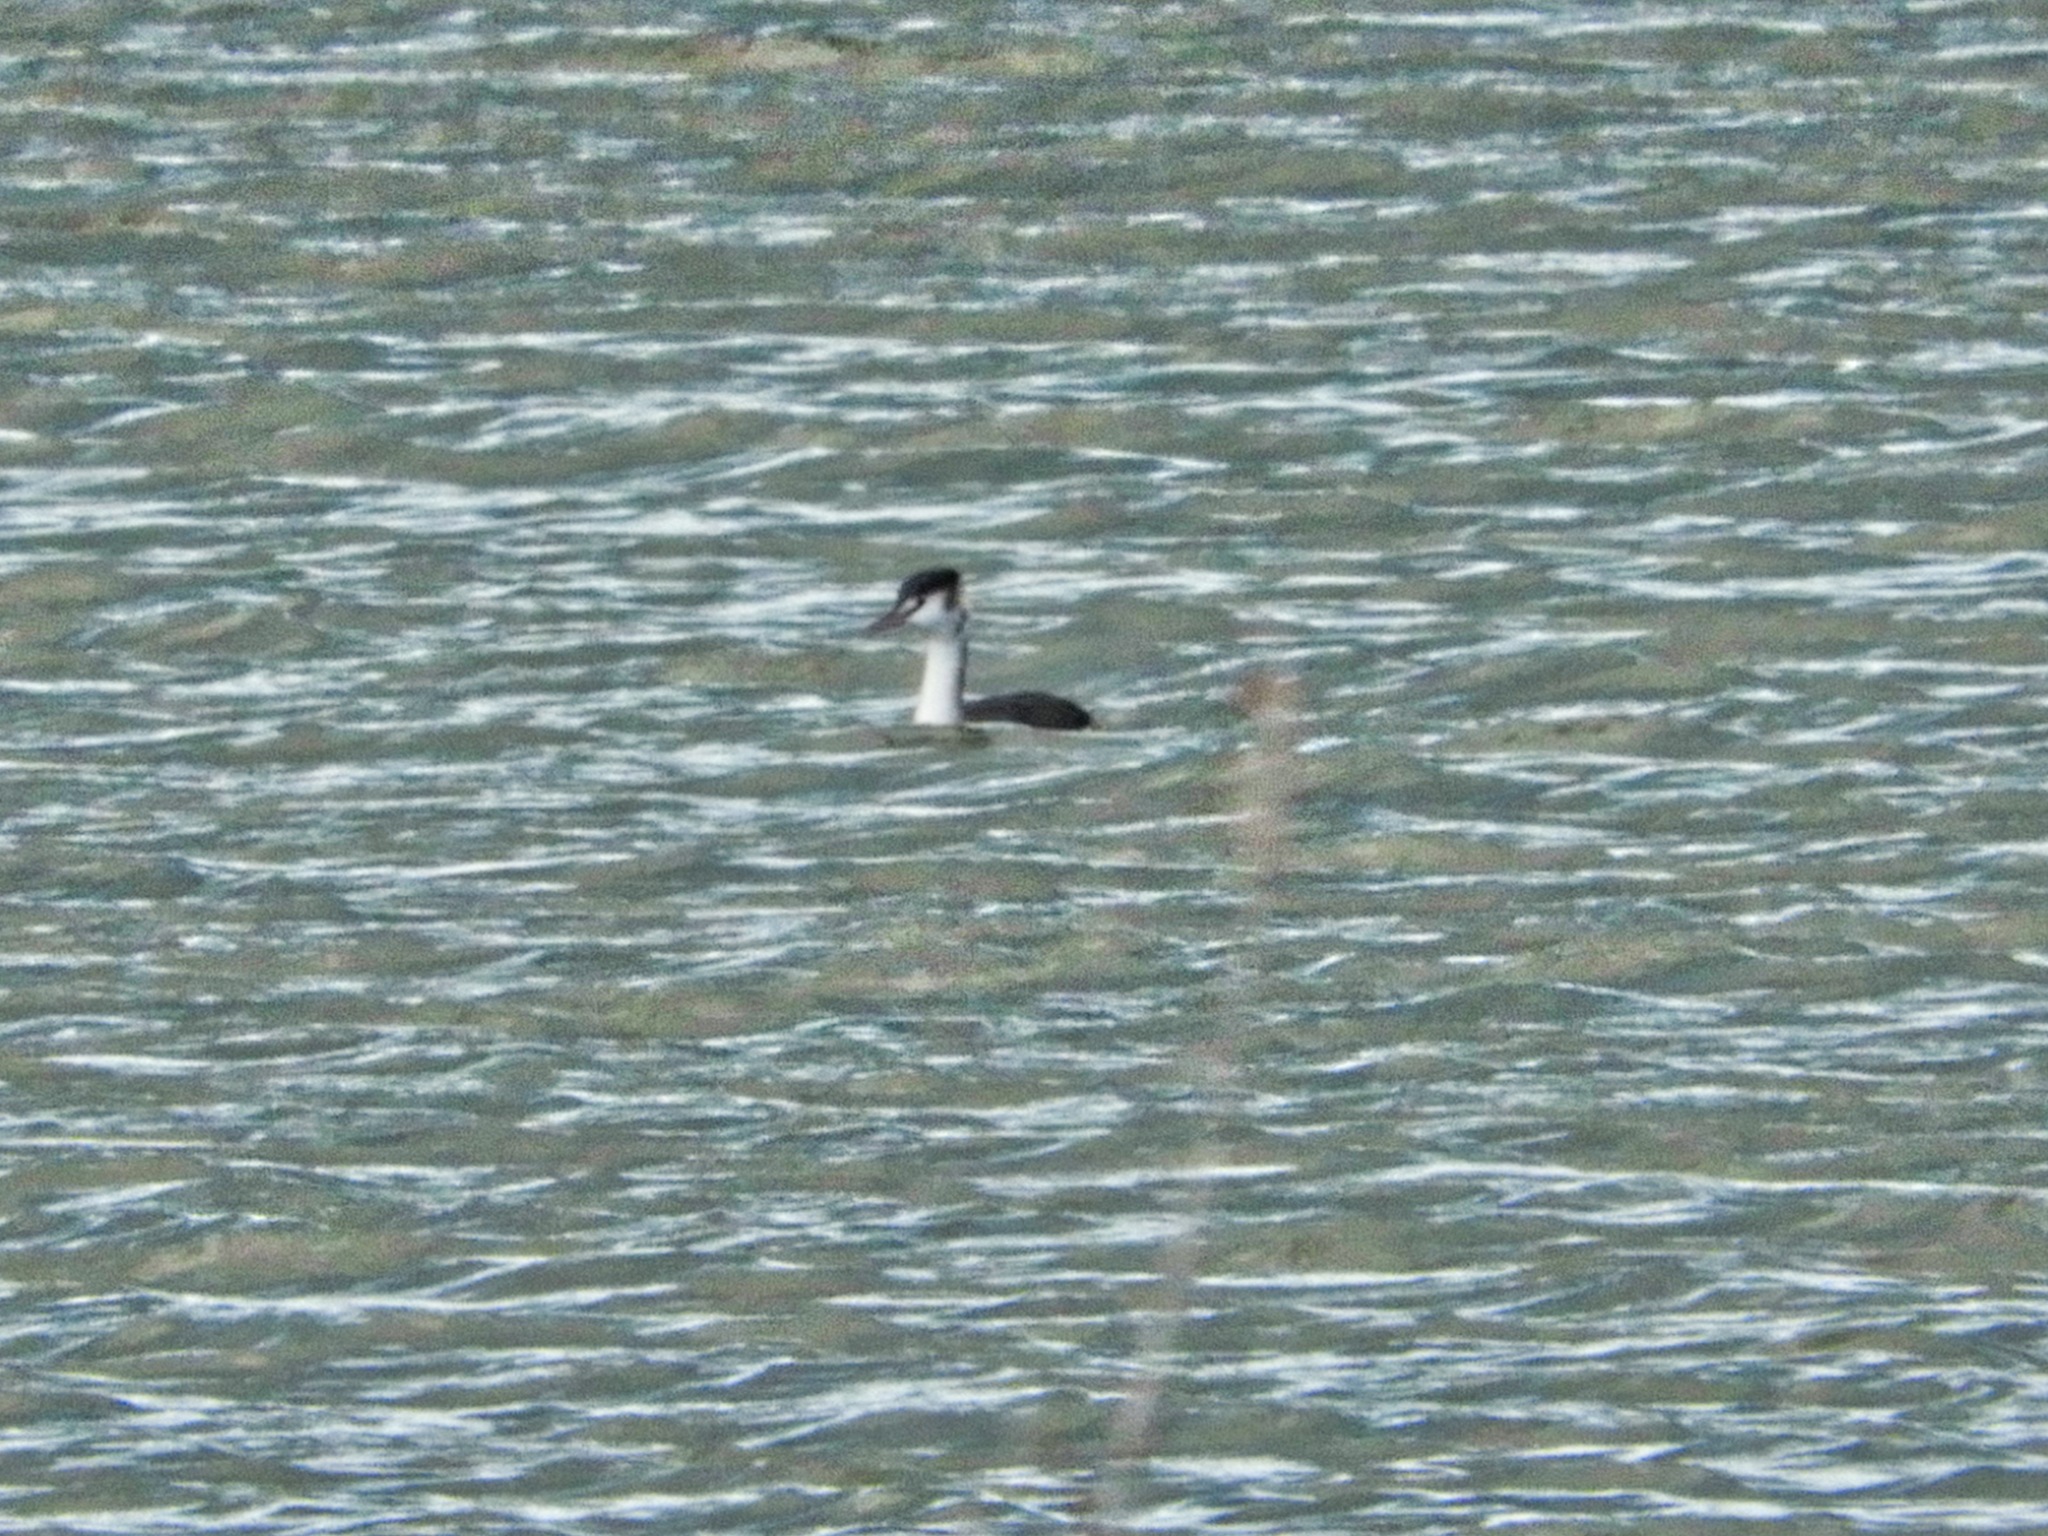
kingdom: Animalia
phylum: Chordata
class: Aves
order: Podicipediformes
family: Podicipedidae
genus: Podiceps
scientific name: Podiceps cristatus
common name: Great crested grebe
